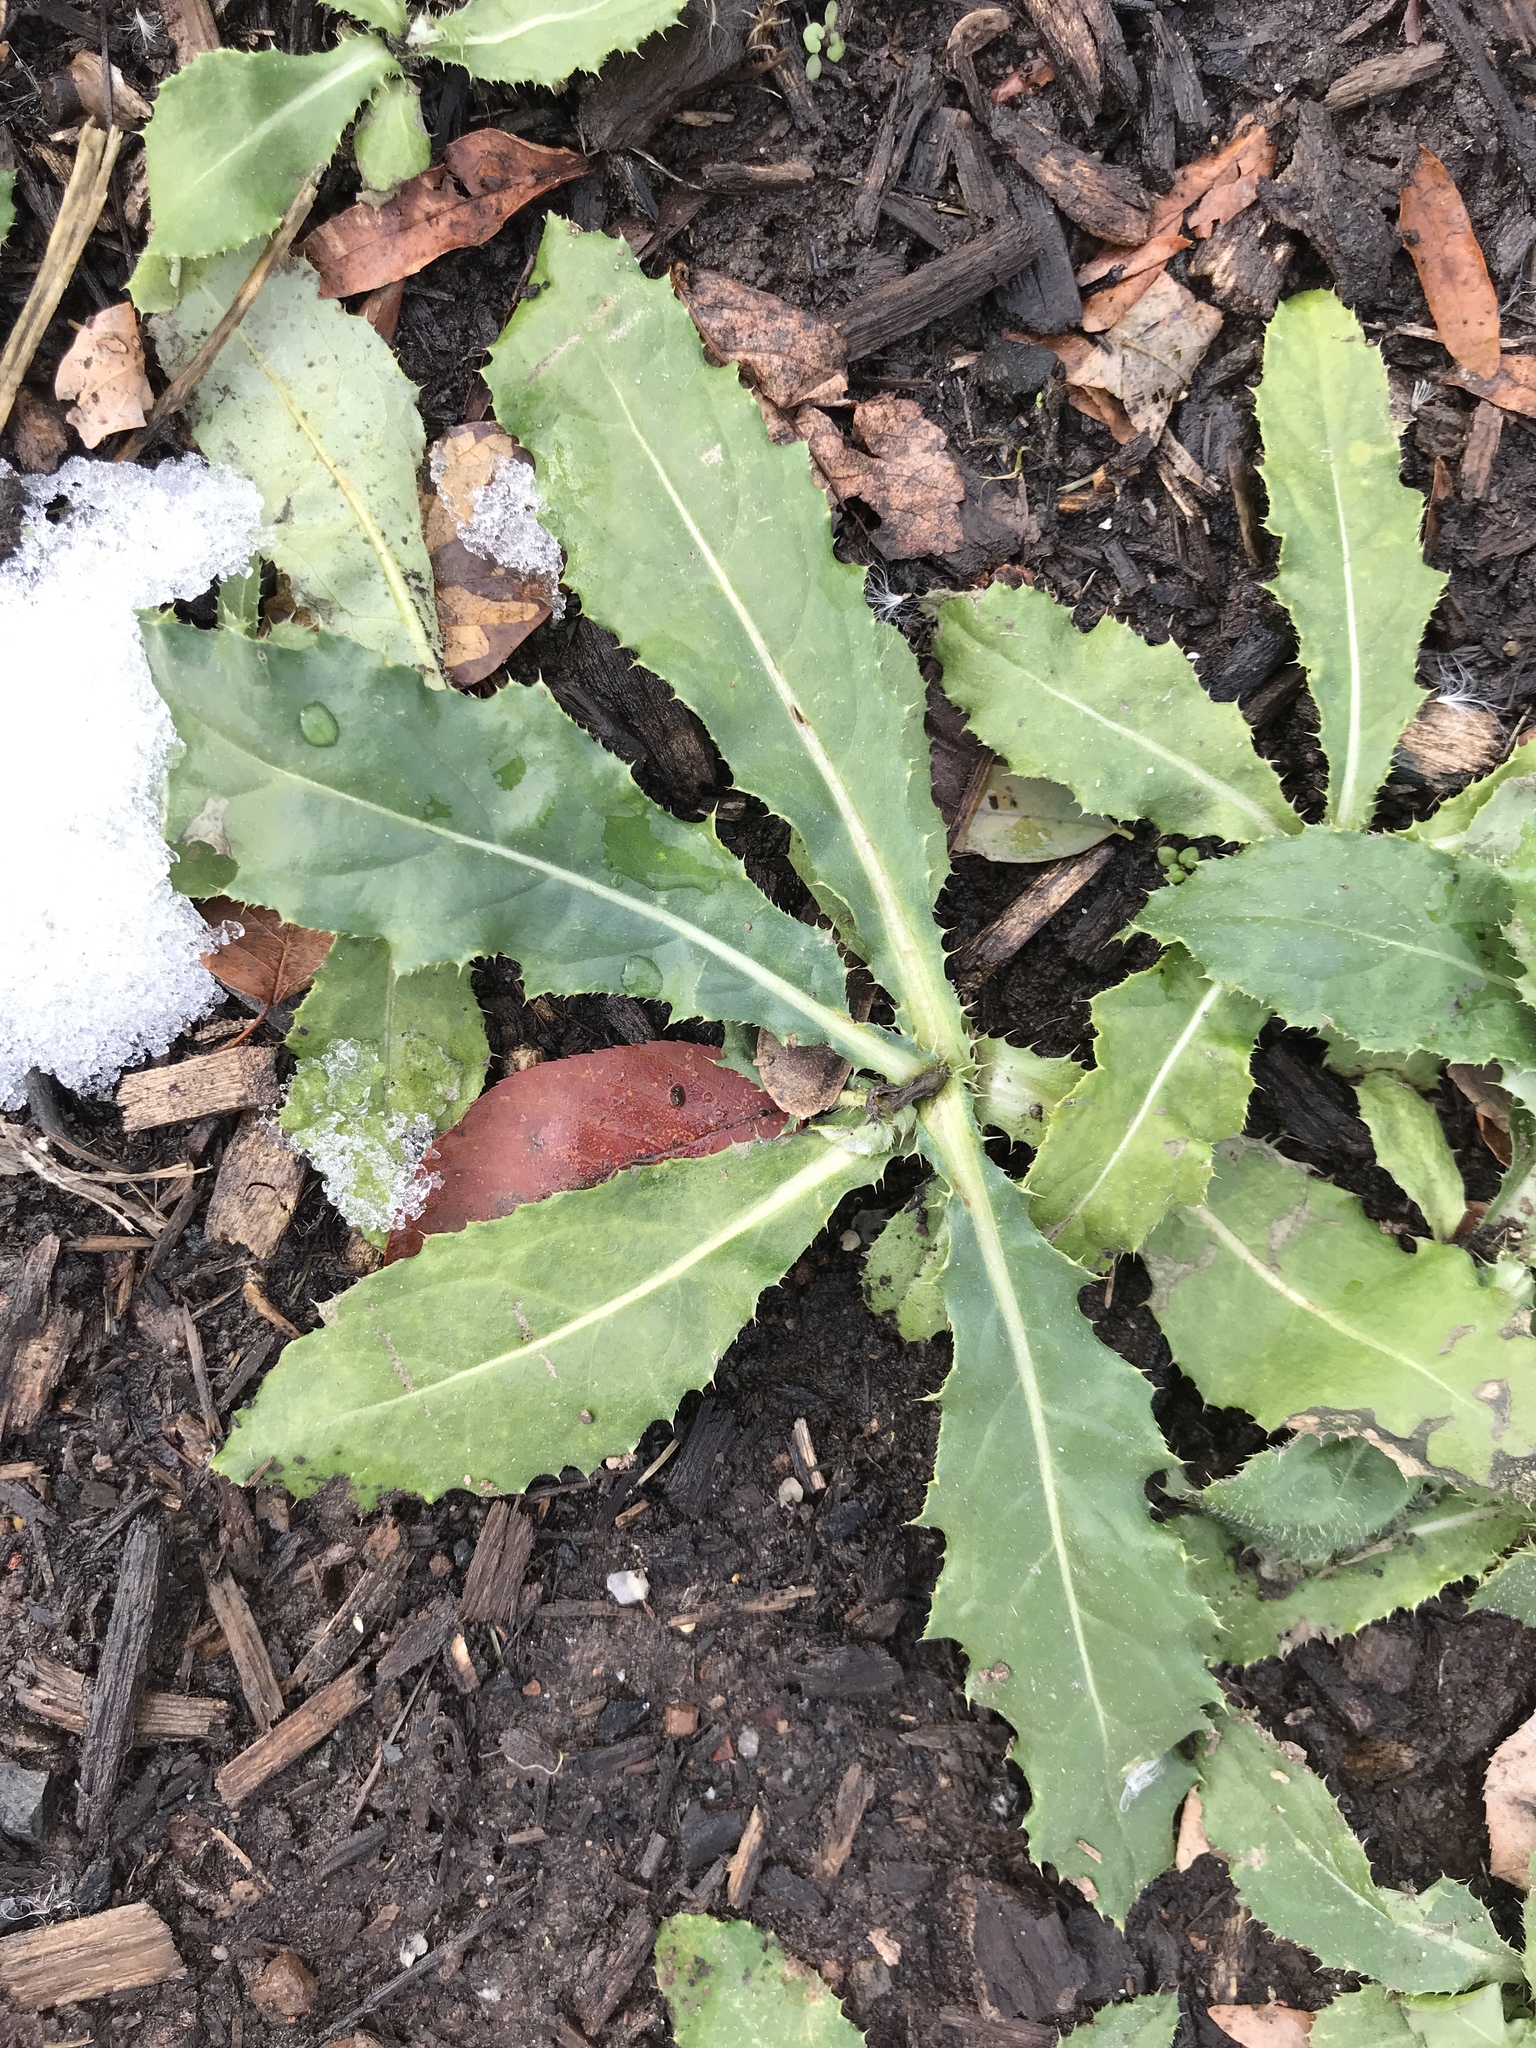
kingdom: Plantae
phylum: Tracheophyta
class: Magnoliopsida
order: Asterales
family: Asteraceae
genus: Cirsium
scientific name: Cirsium arvense
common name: Creeping thistle
